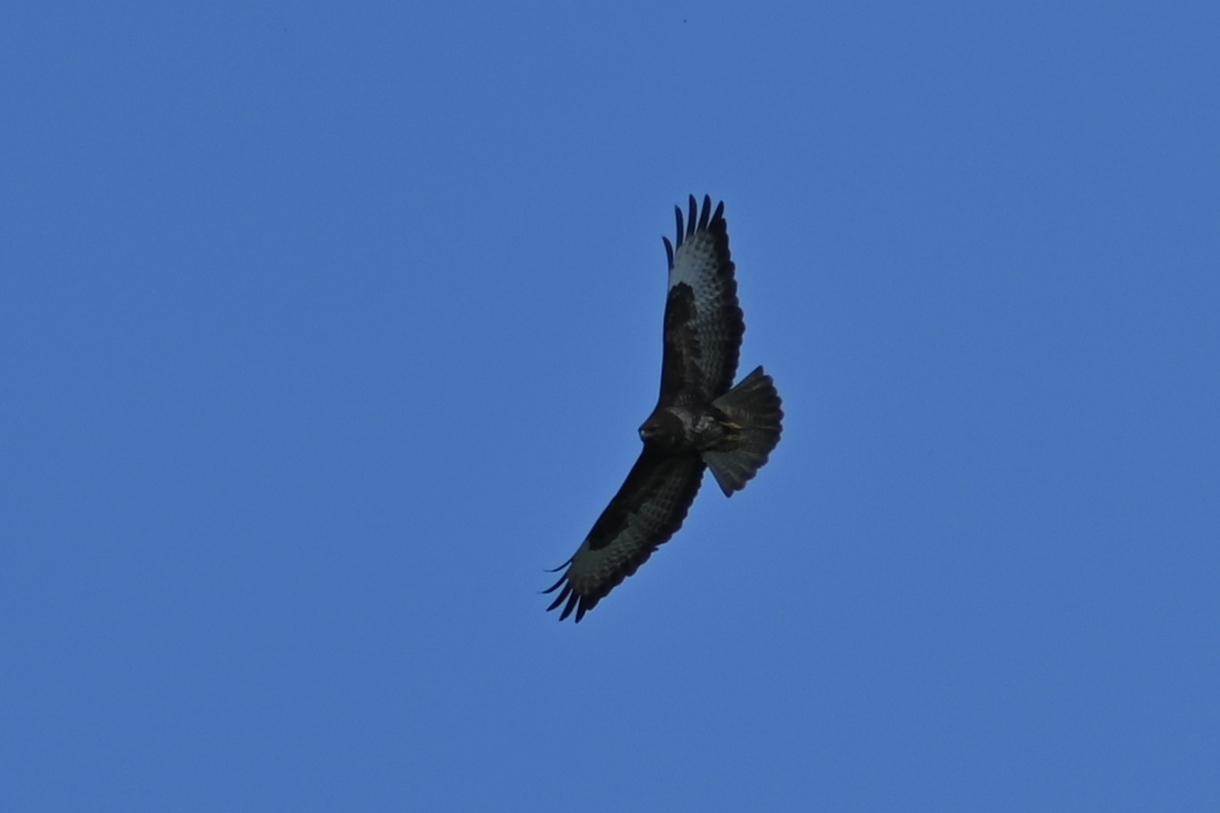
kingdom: Animalia
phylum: Chordata
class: Aves
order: Accipitriformes
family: Accipitridae
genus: Buteo
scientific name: Buteo buteo
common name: Common buzzard
